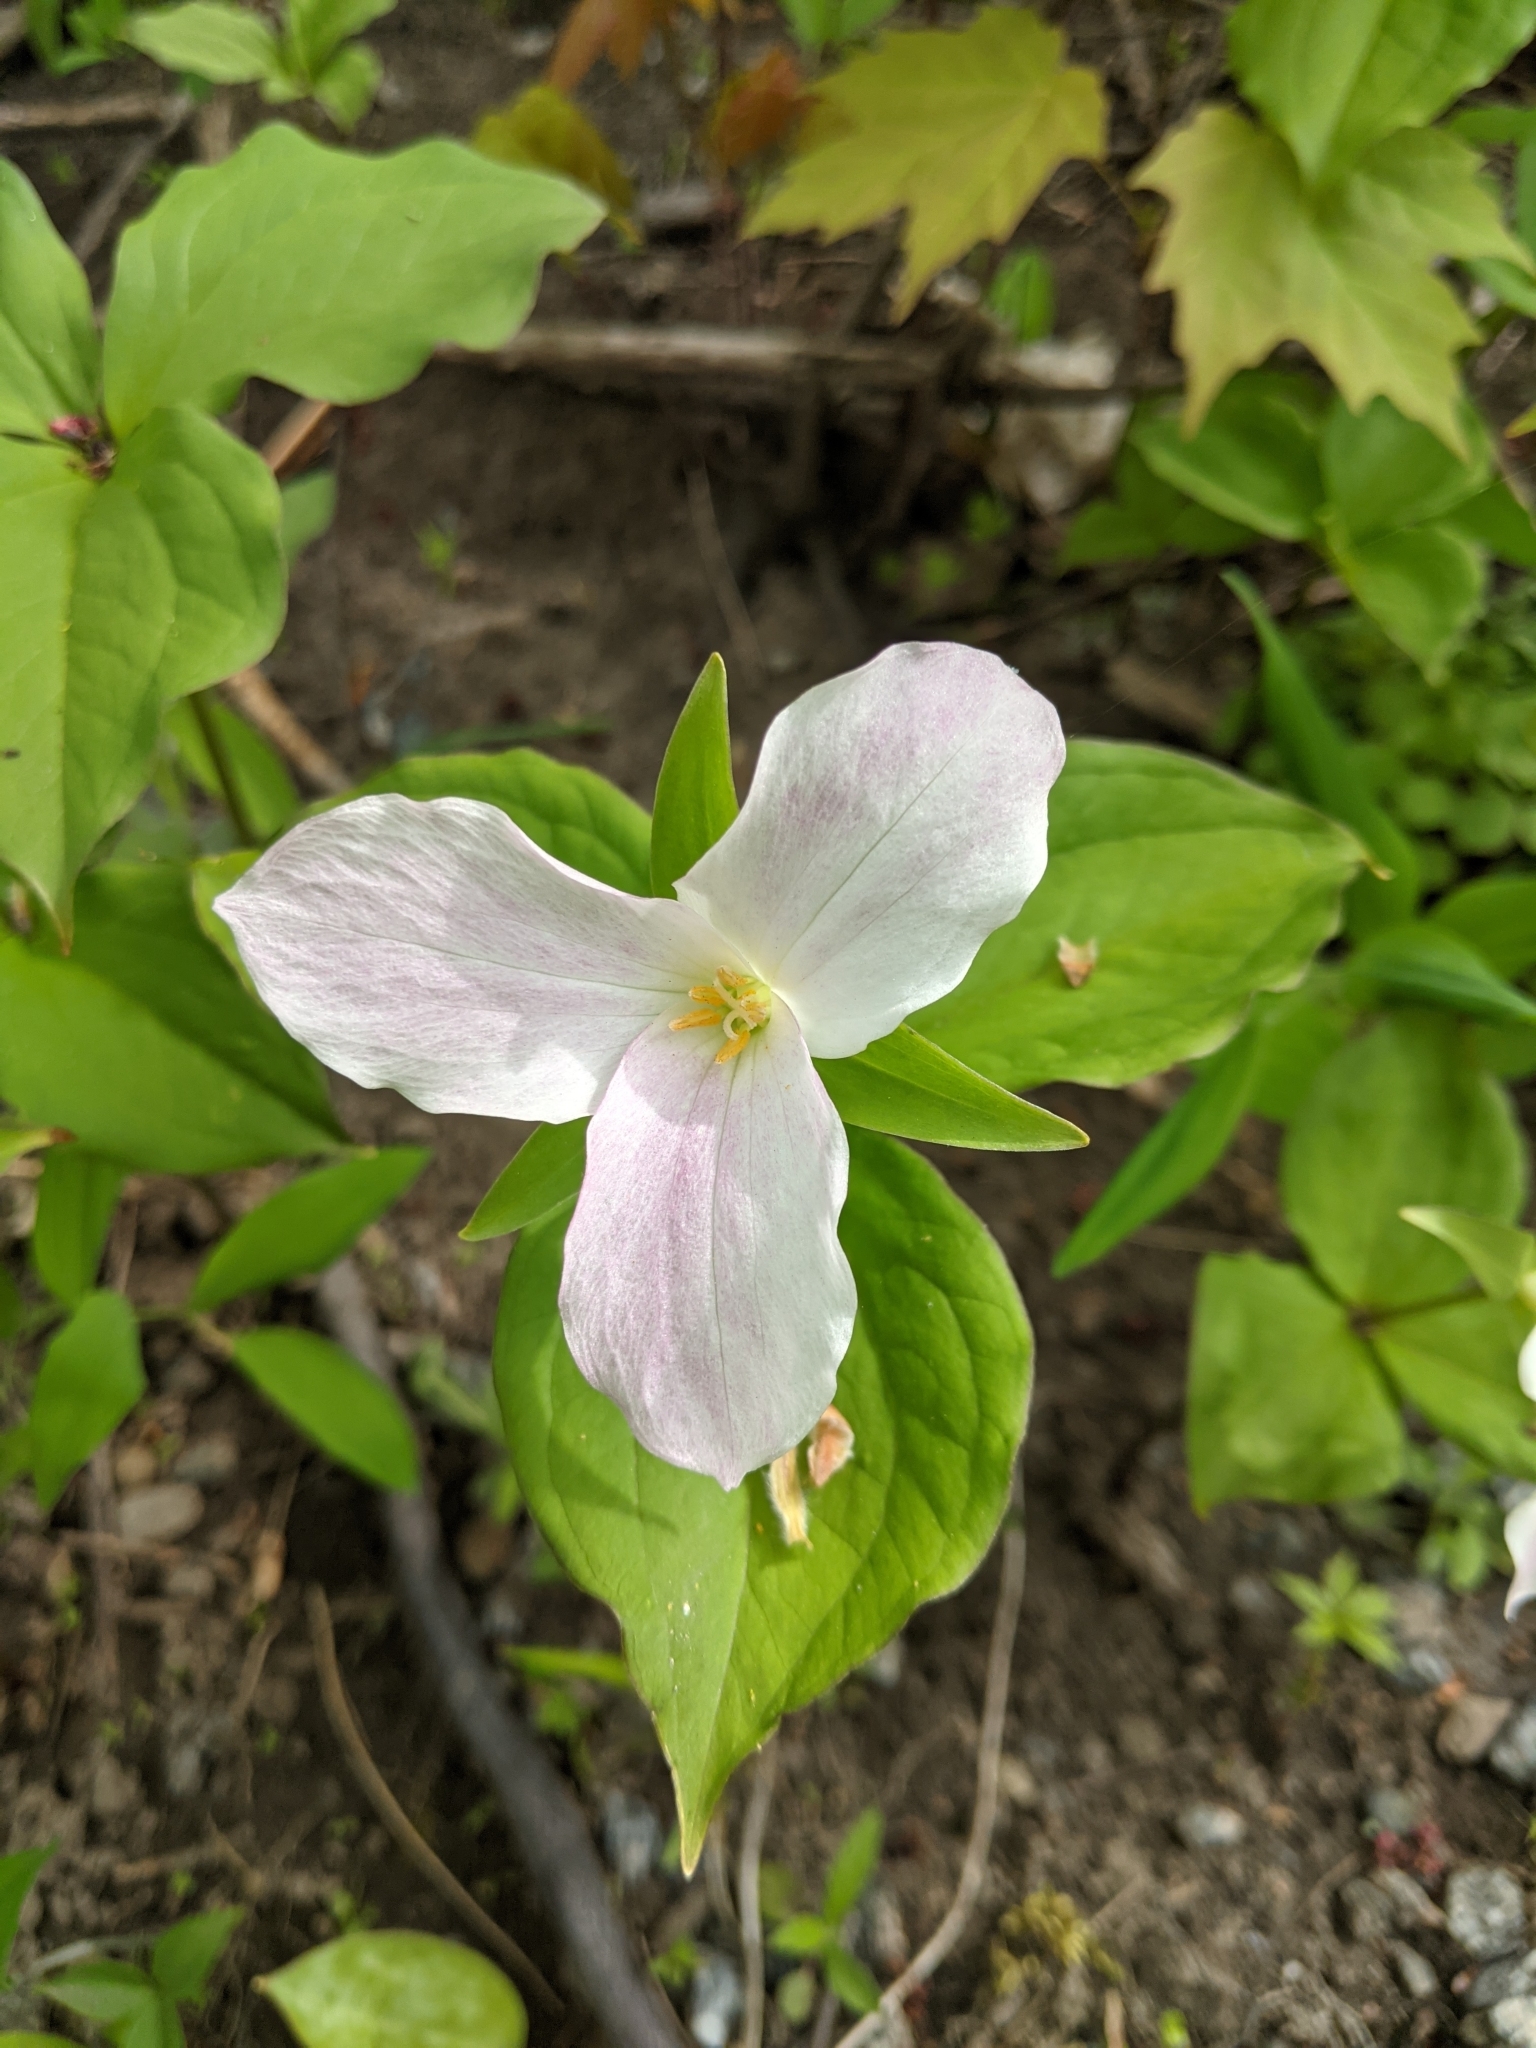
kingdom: Plantae
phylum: Tracheophyta
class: Liliopsida
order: Liliales
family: Melanthiaceae
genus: Trillium
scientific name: Trillium grandiflorum
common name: Great white trillium
